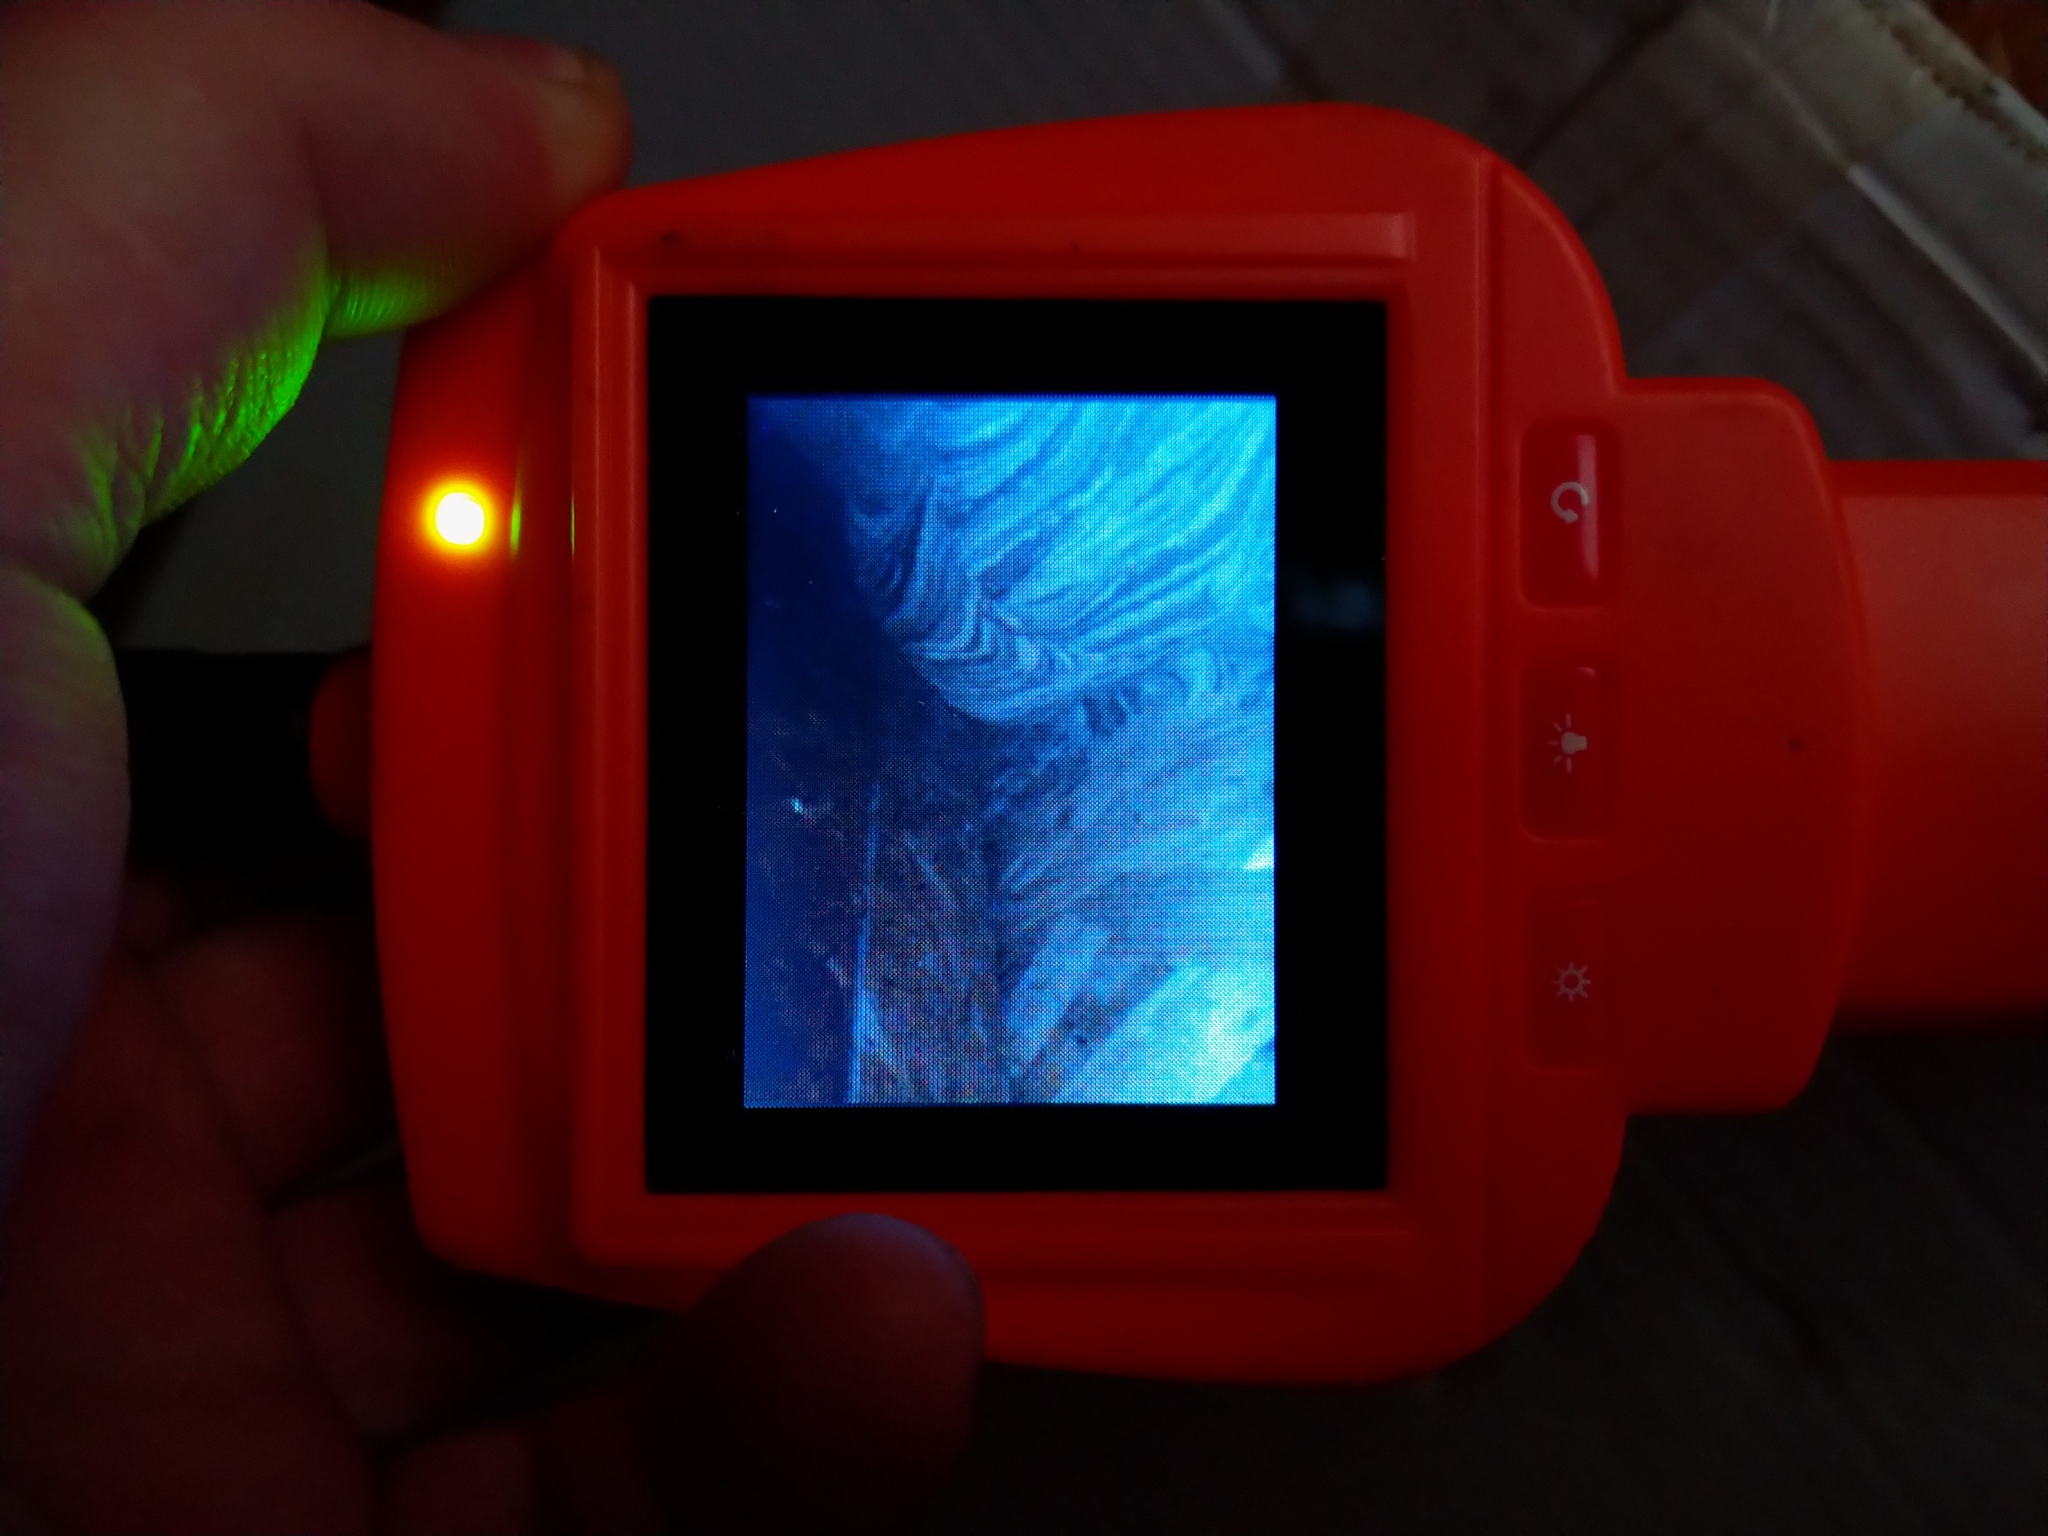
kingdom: Animalia
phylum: Arthropoda
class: Insecta
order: Hymenoptera
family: Vespidae
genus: Vespa
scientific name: Vespa velutina
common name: Asian hornet
